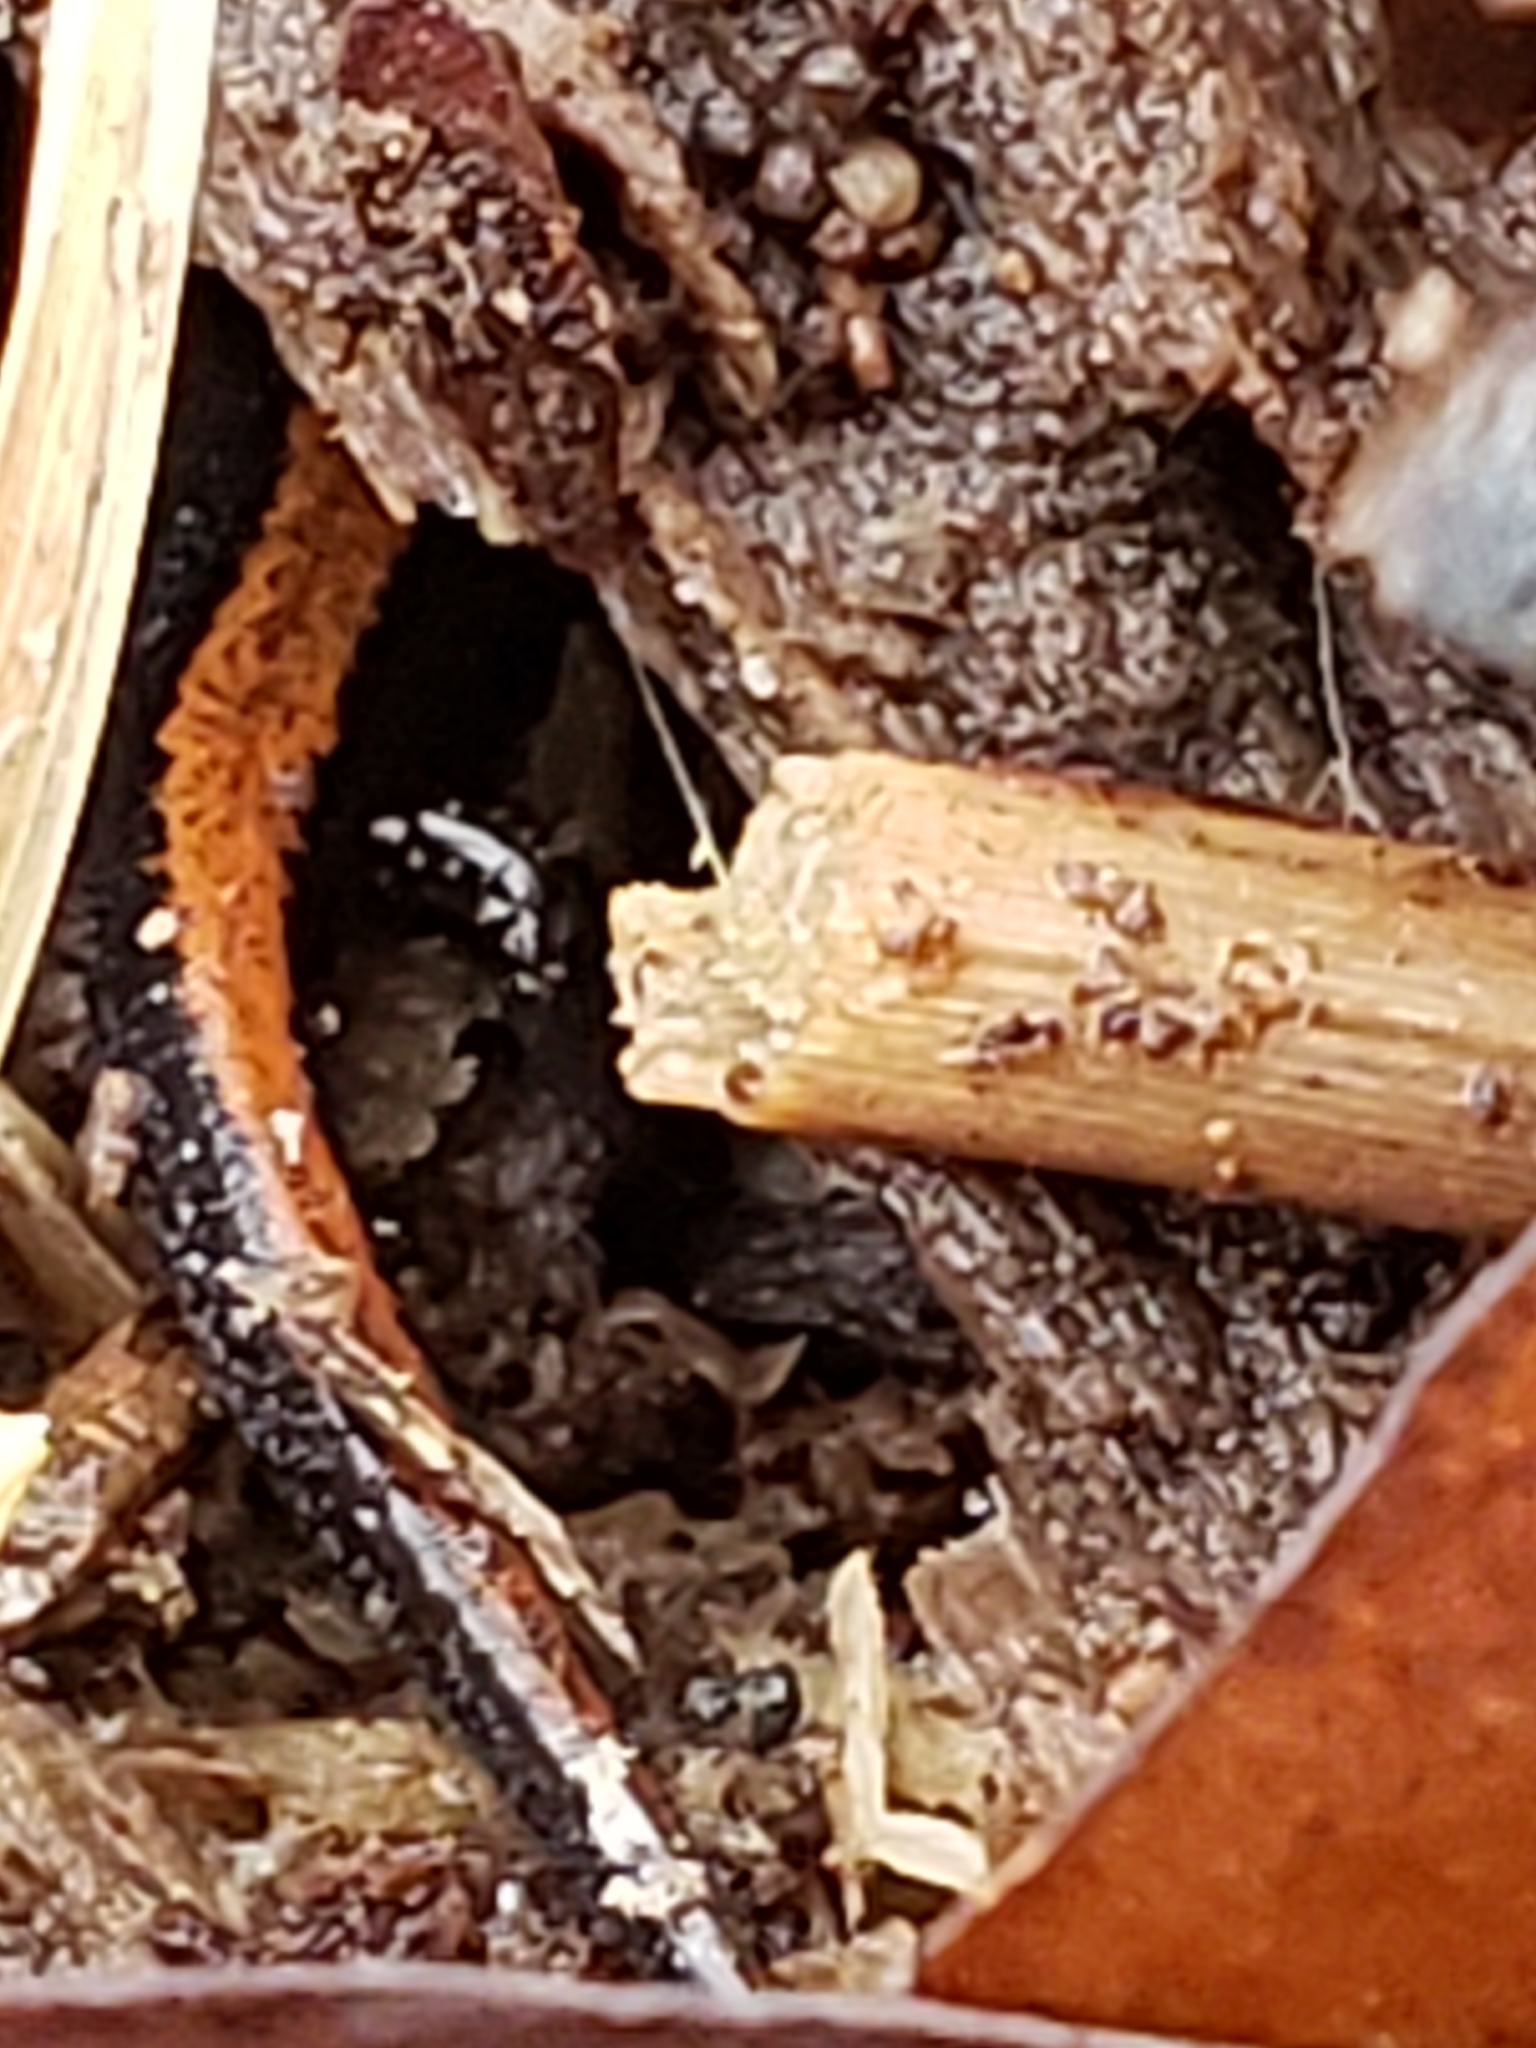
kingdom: Animalia
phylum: Chordata
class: Amphibia
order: Caudata
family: Plethodontidae
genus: Plethodon
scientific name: Plethodon cinereus
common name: Redback salamander
